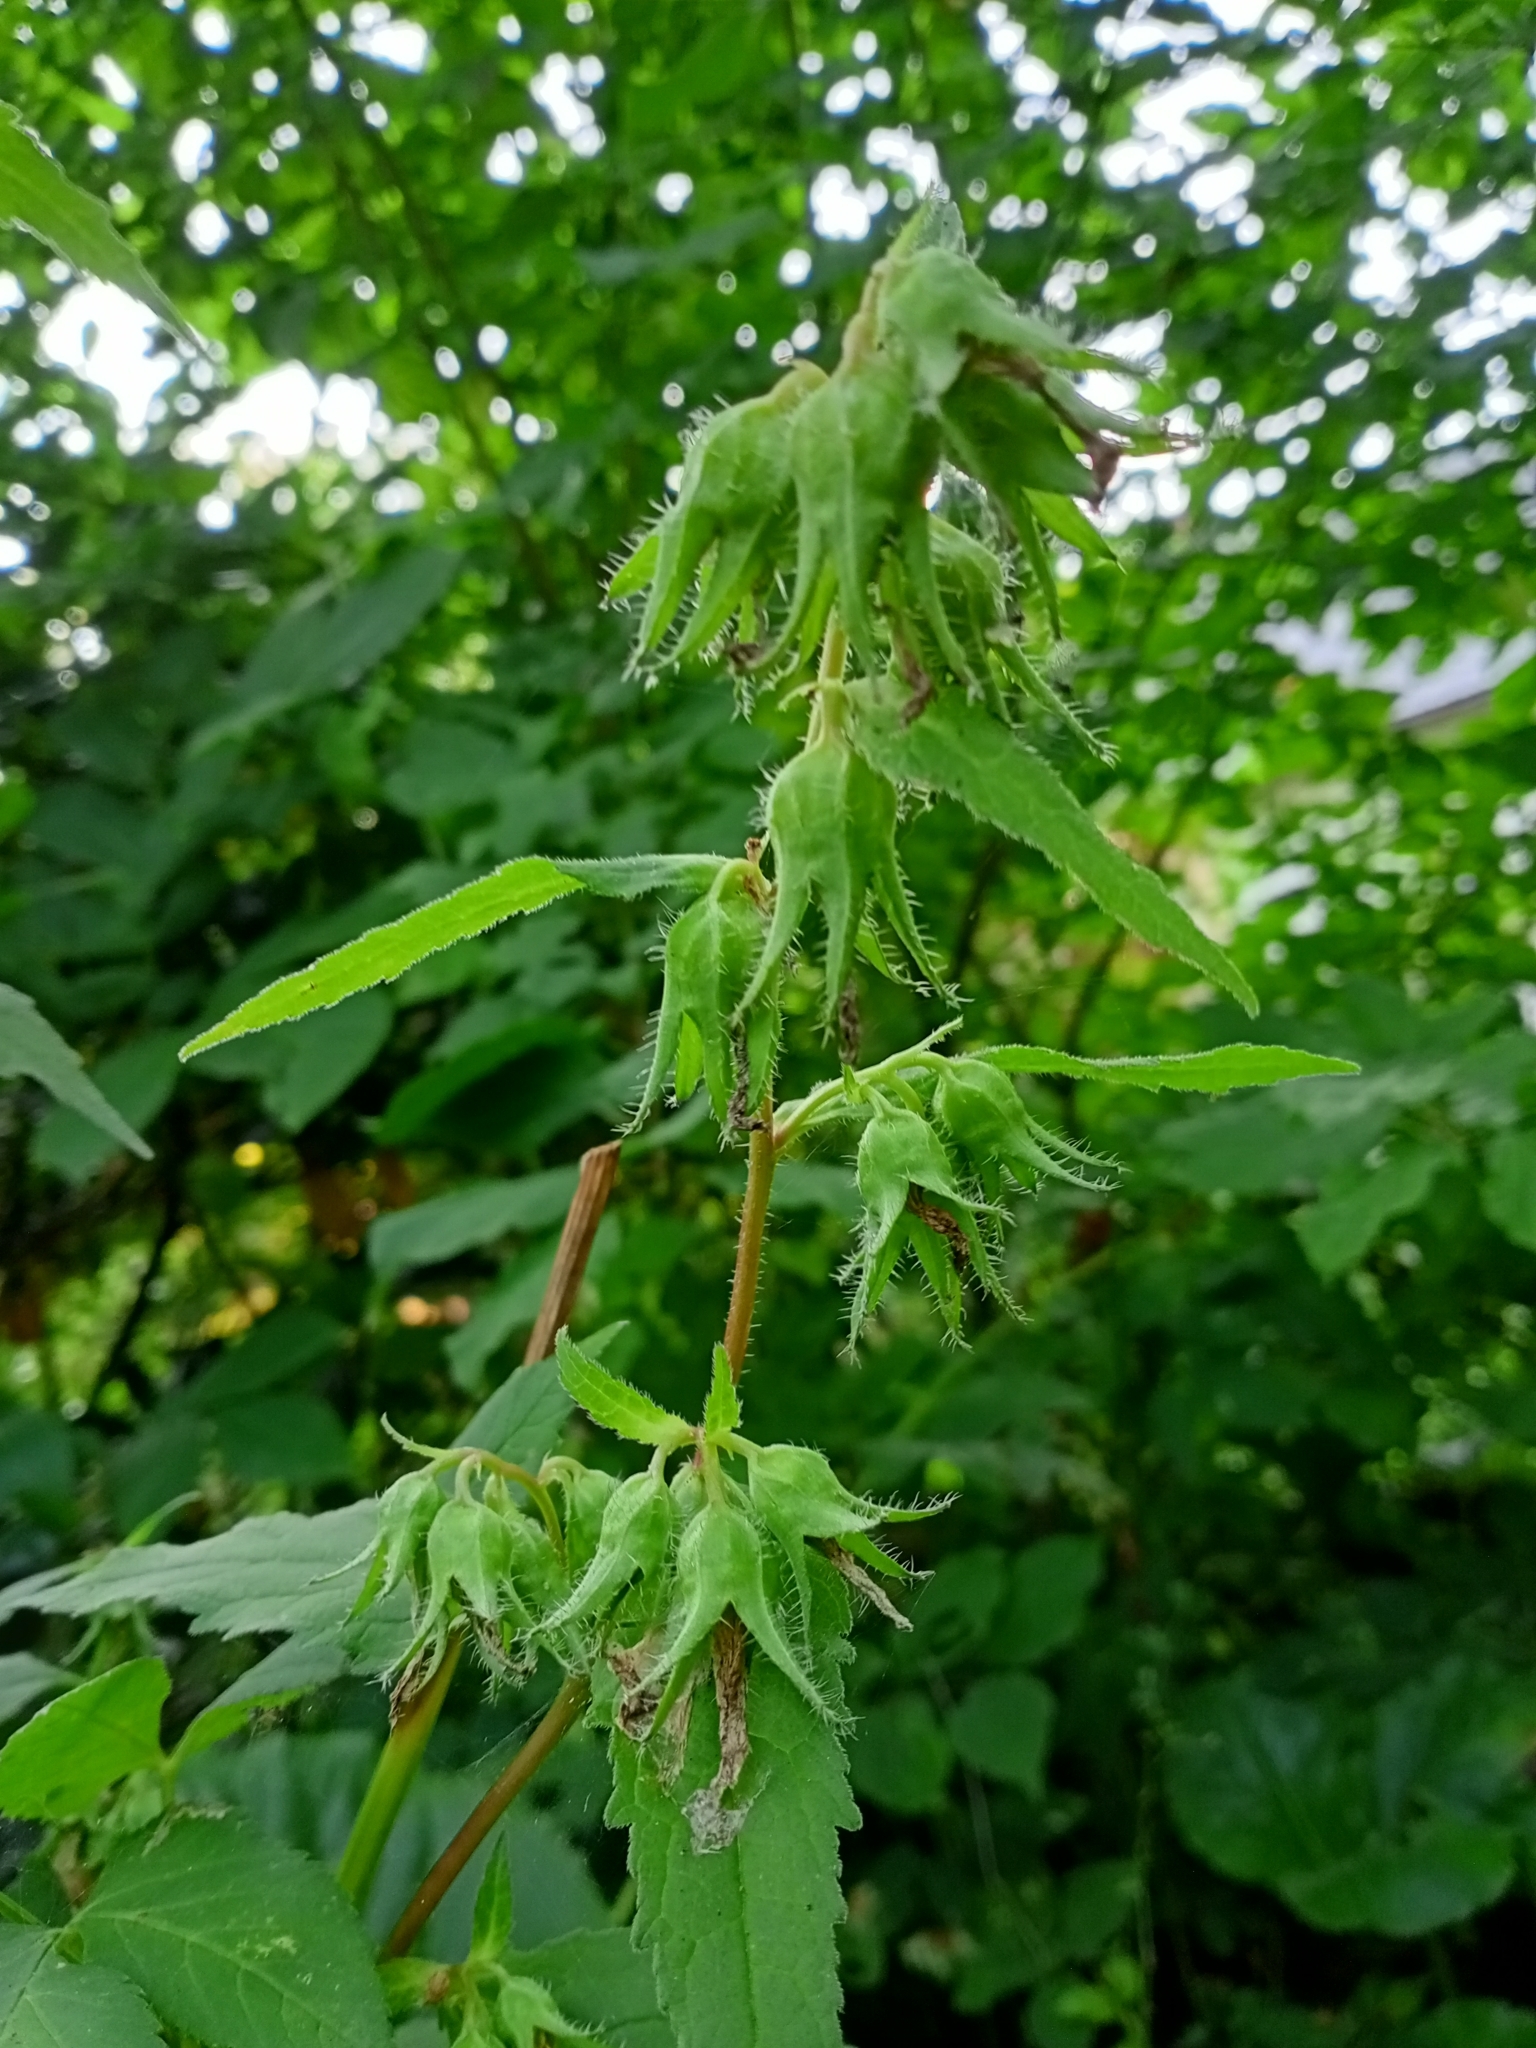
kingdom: Plantae
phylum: Tracheophyta
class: Magnoliopsida
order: Asterales
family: Campanulaceae
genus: Campanula
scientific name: Campanula trachelium
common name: Nettle-leaved bellflower
